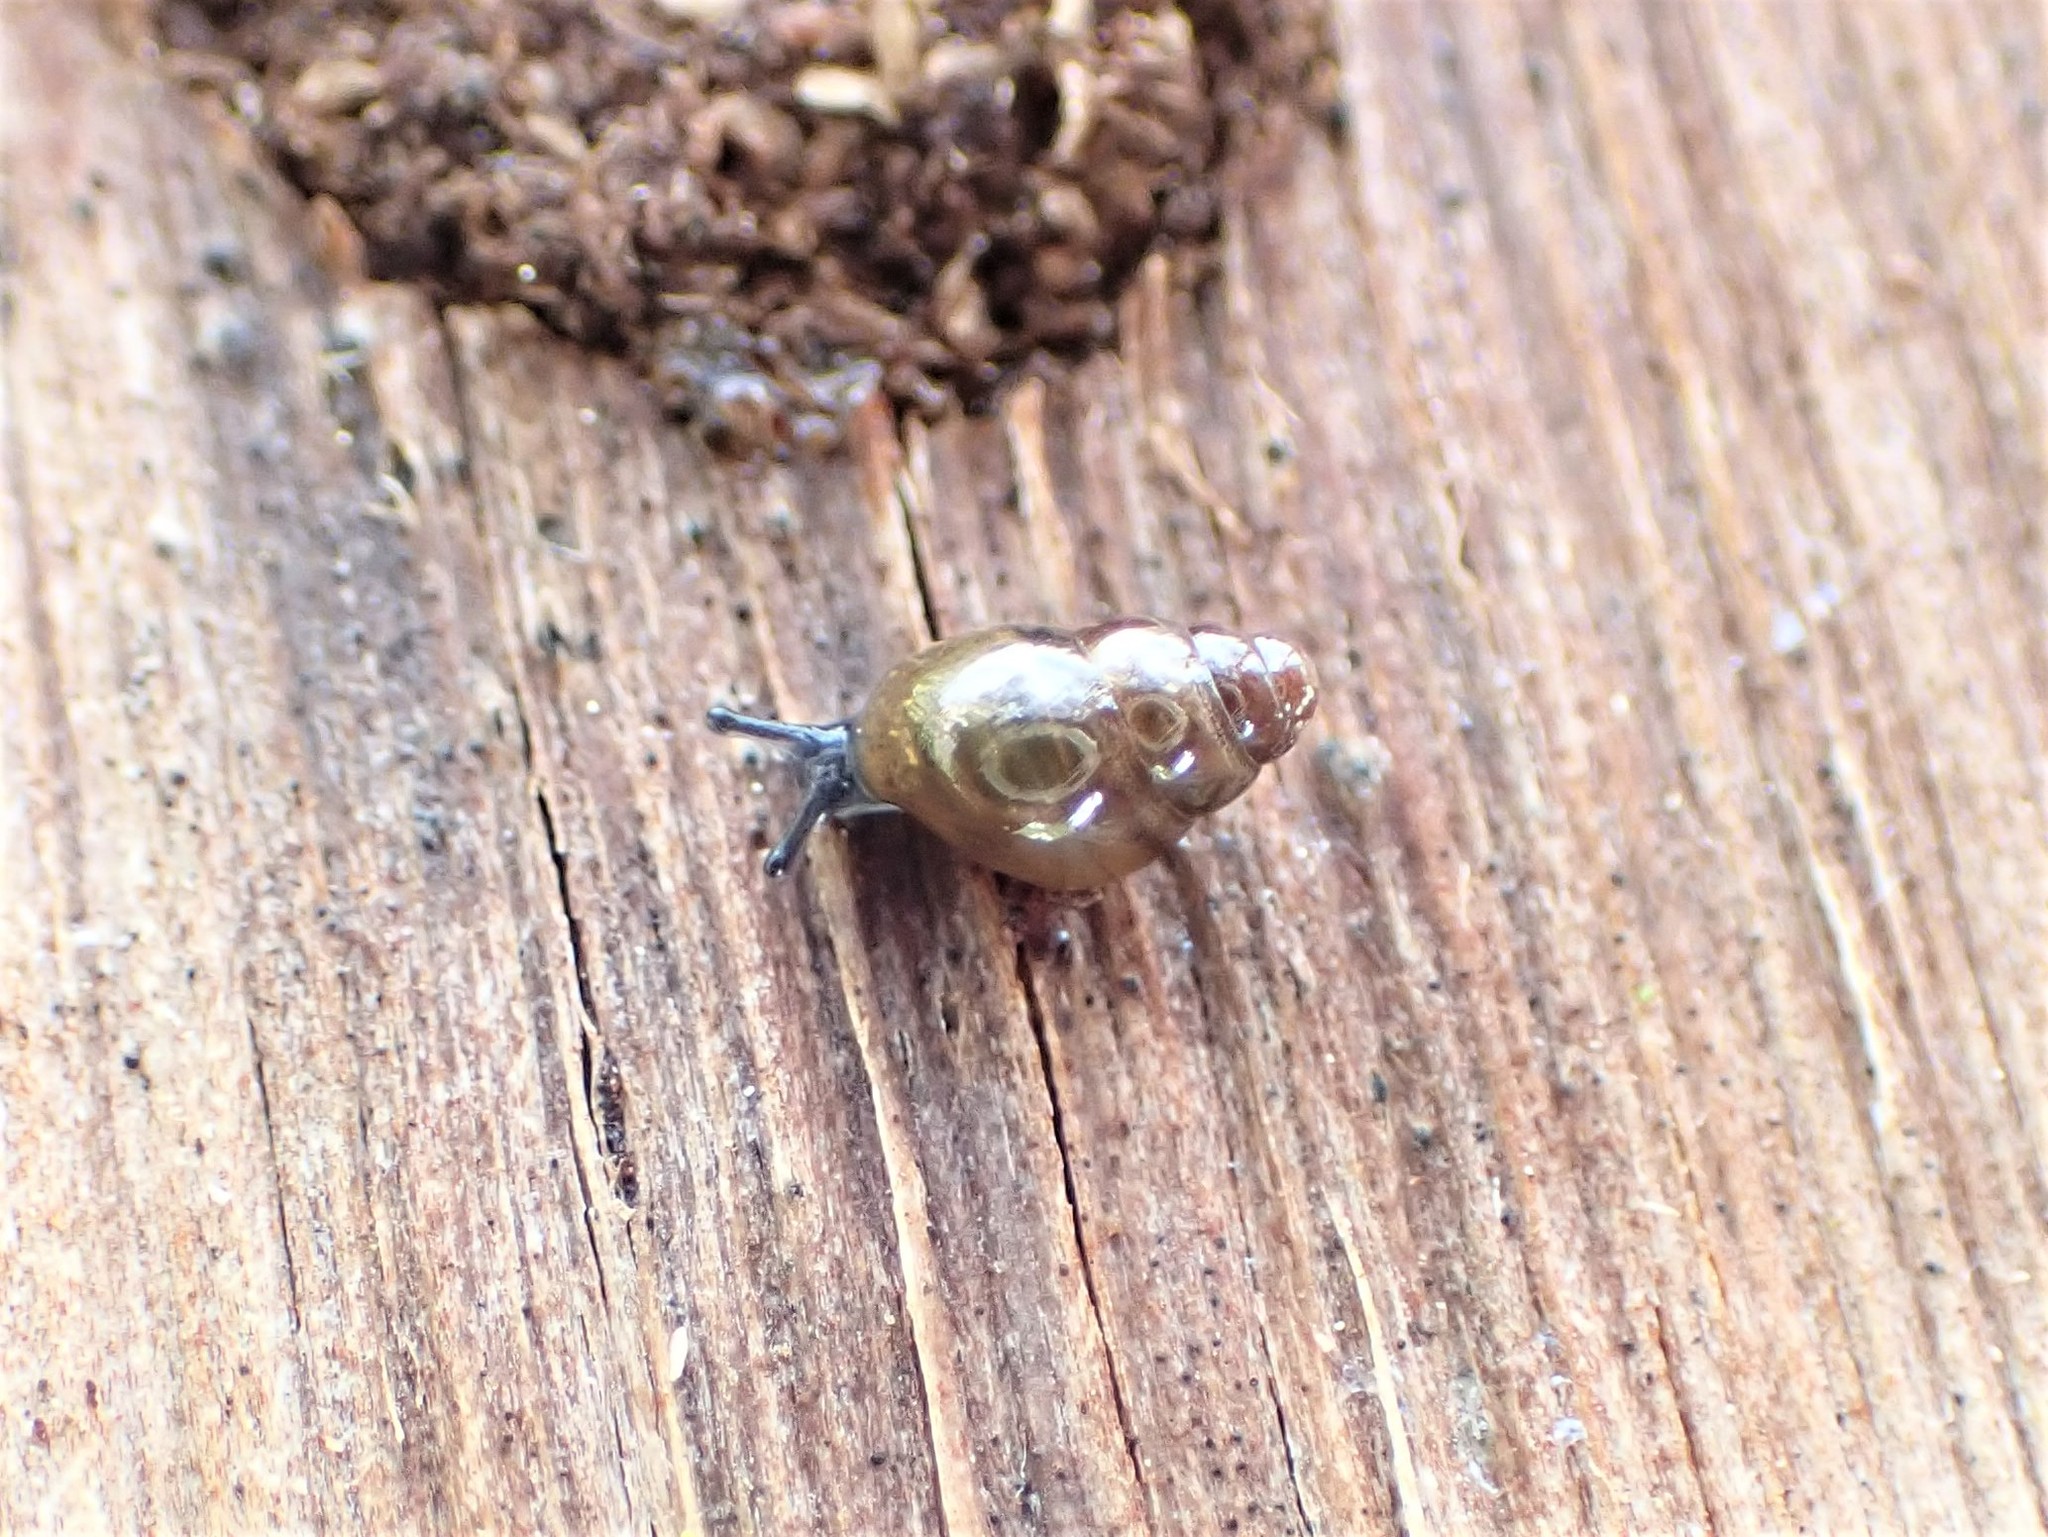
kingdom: Animalia
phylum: Mollusca
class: Gastropoda
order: Stylommatophora
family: Cochlicopidae
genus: Cochlicopa
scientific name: Cochlicopa lubrica
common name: Glossy pillar snail
